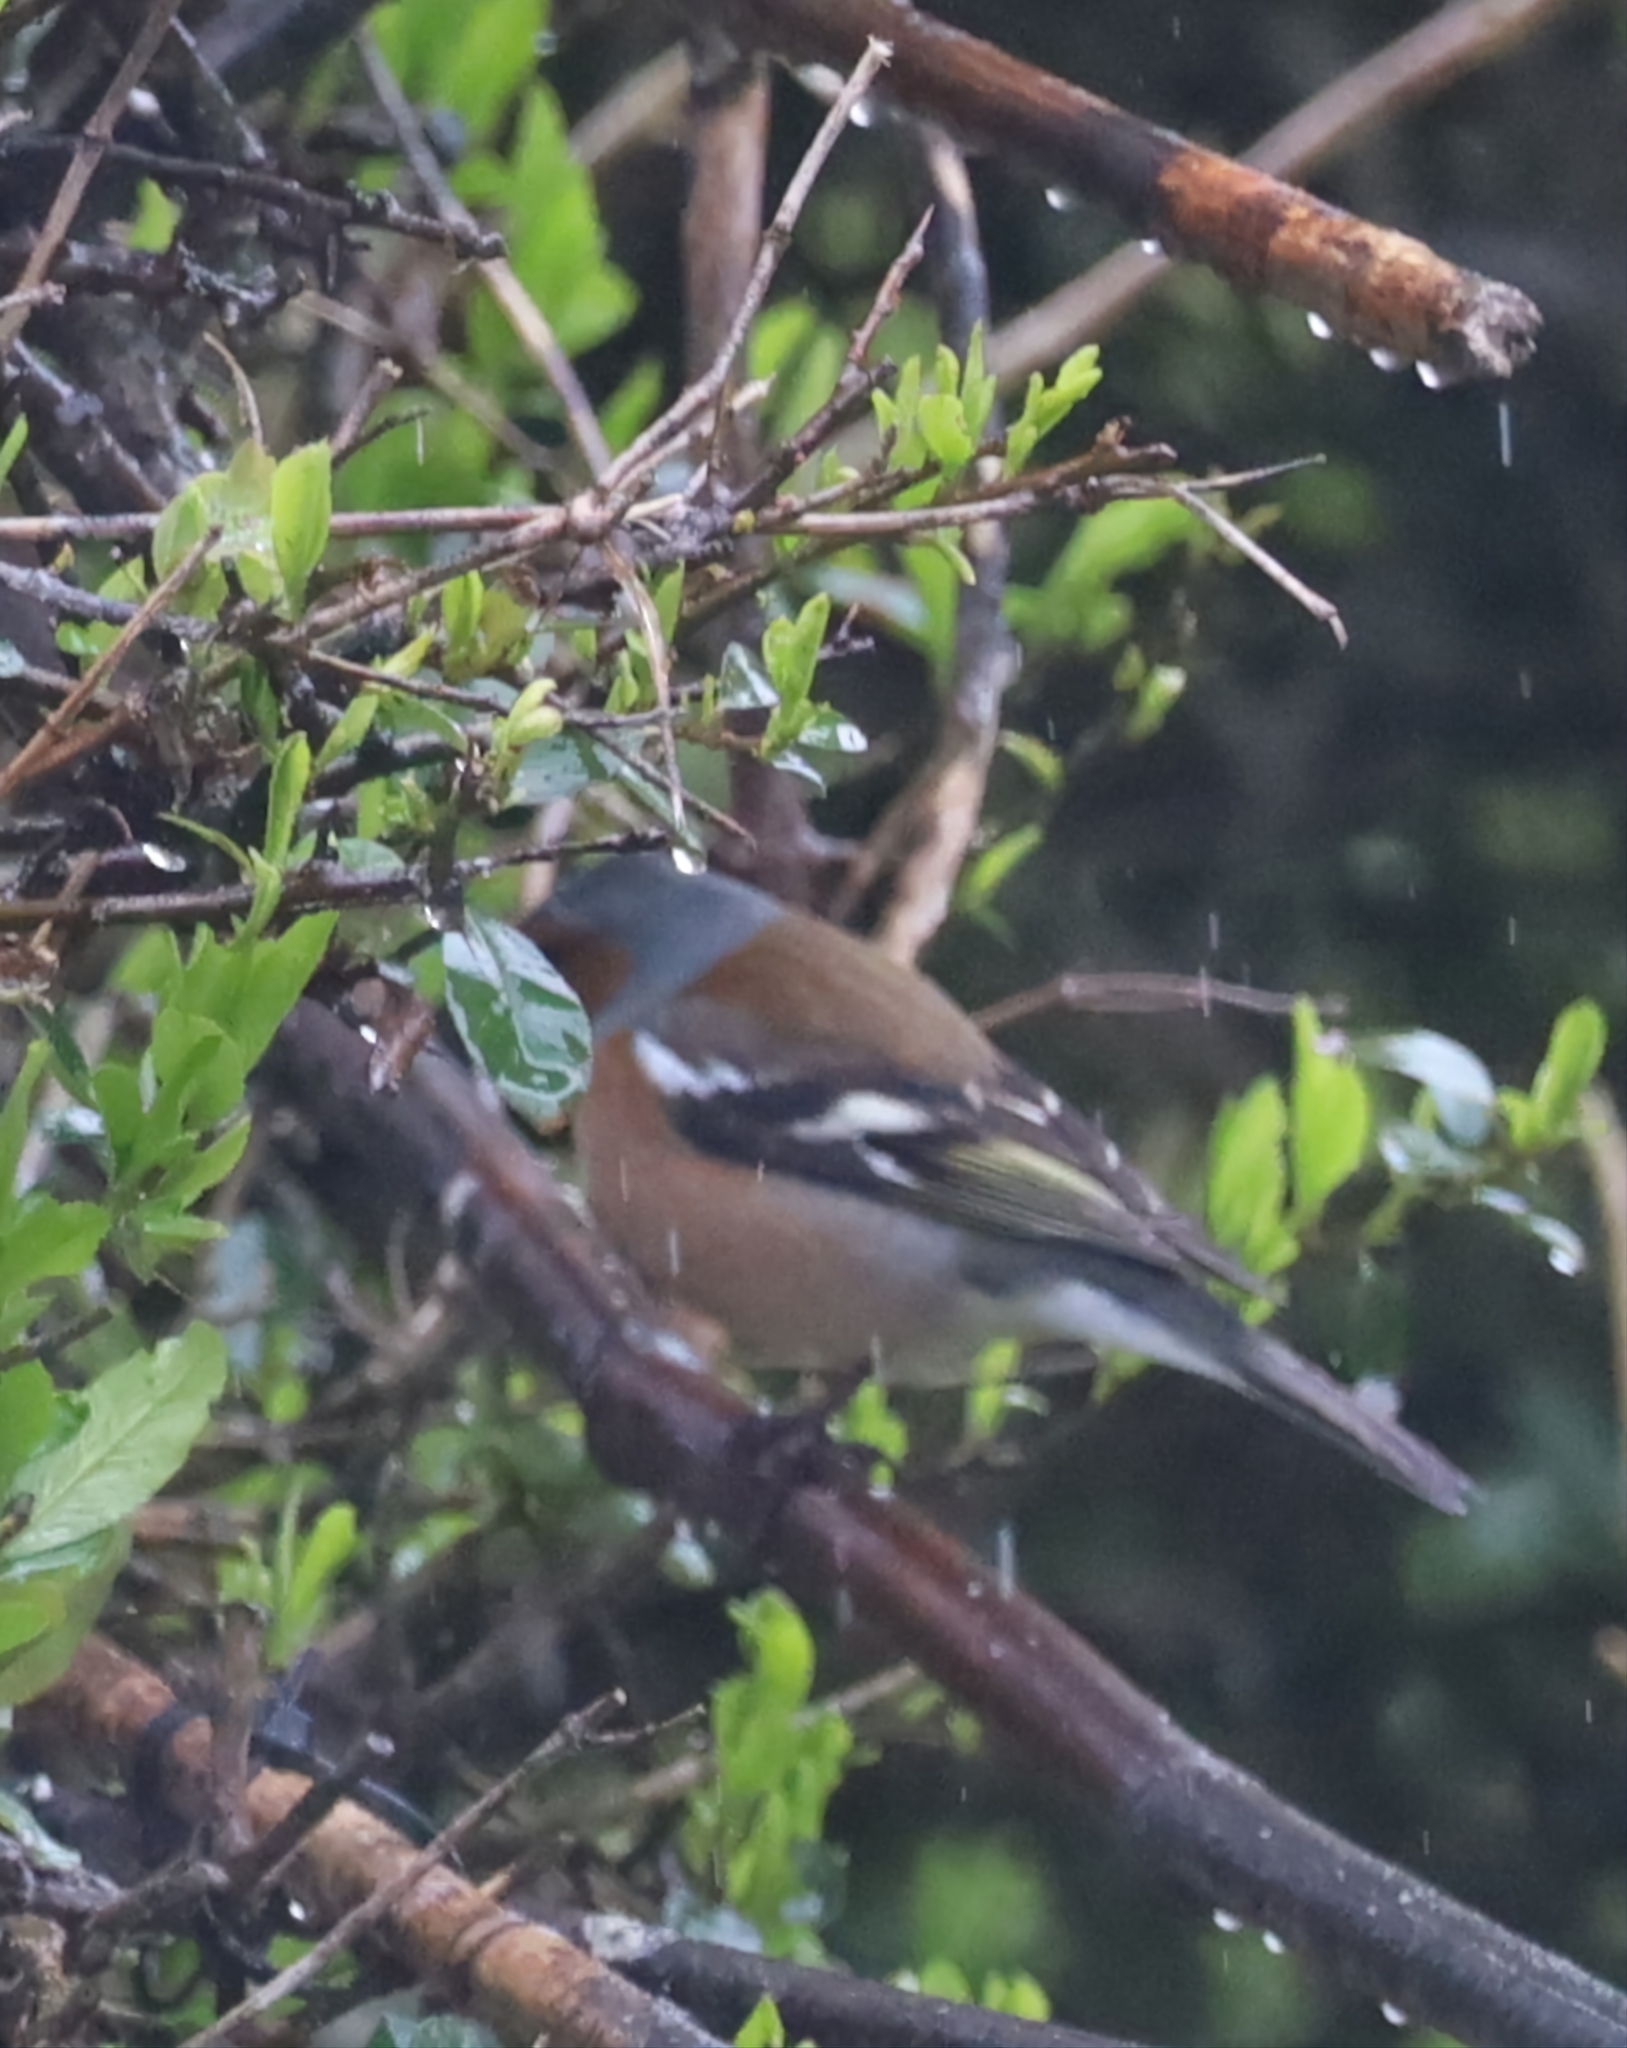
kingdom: Animalia
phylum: Chordata
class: Aves
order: Passeriformes
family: Fringillidae
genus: Fringilla
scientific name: Fringilla coelebs
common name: Common chaffinch
